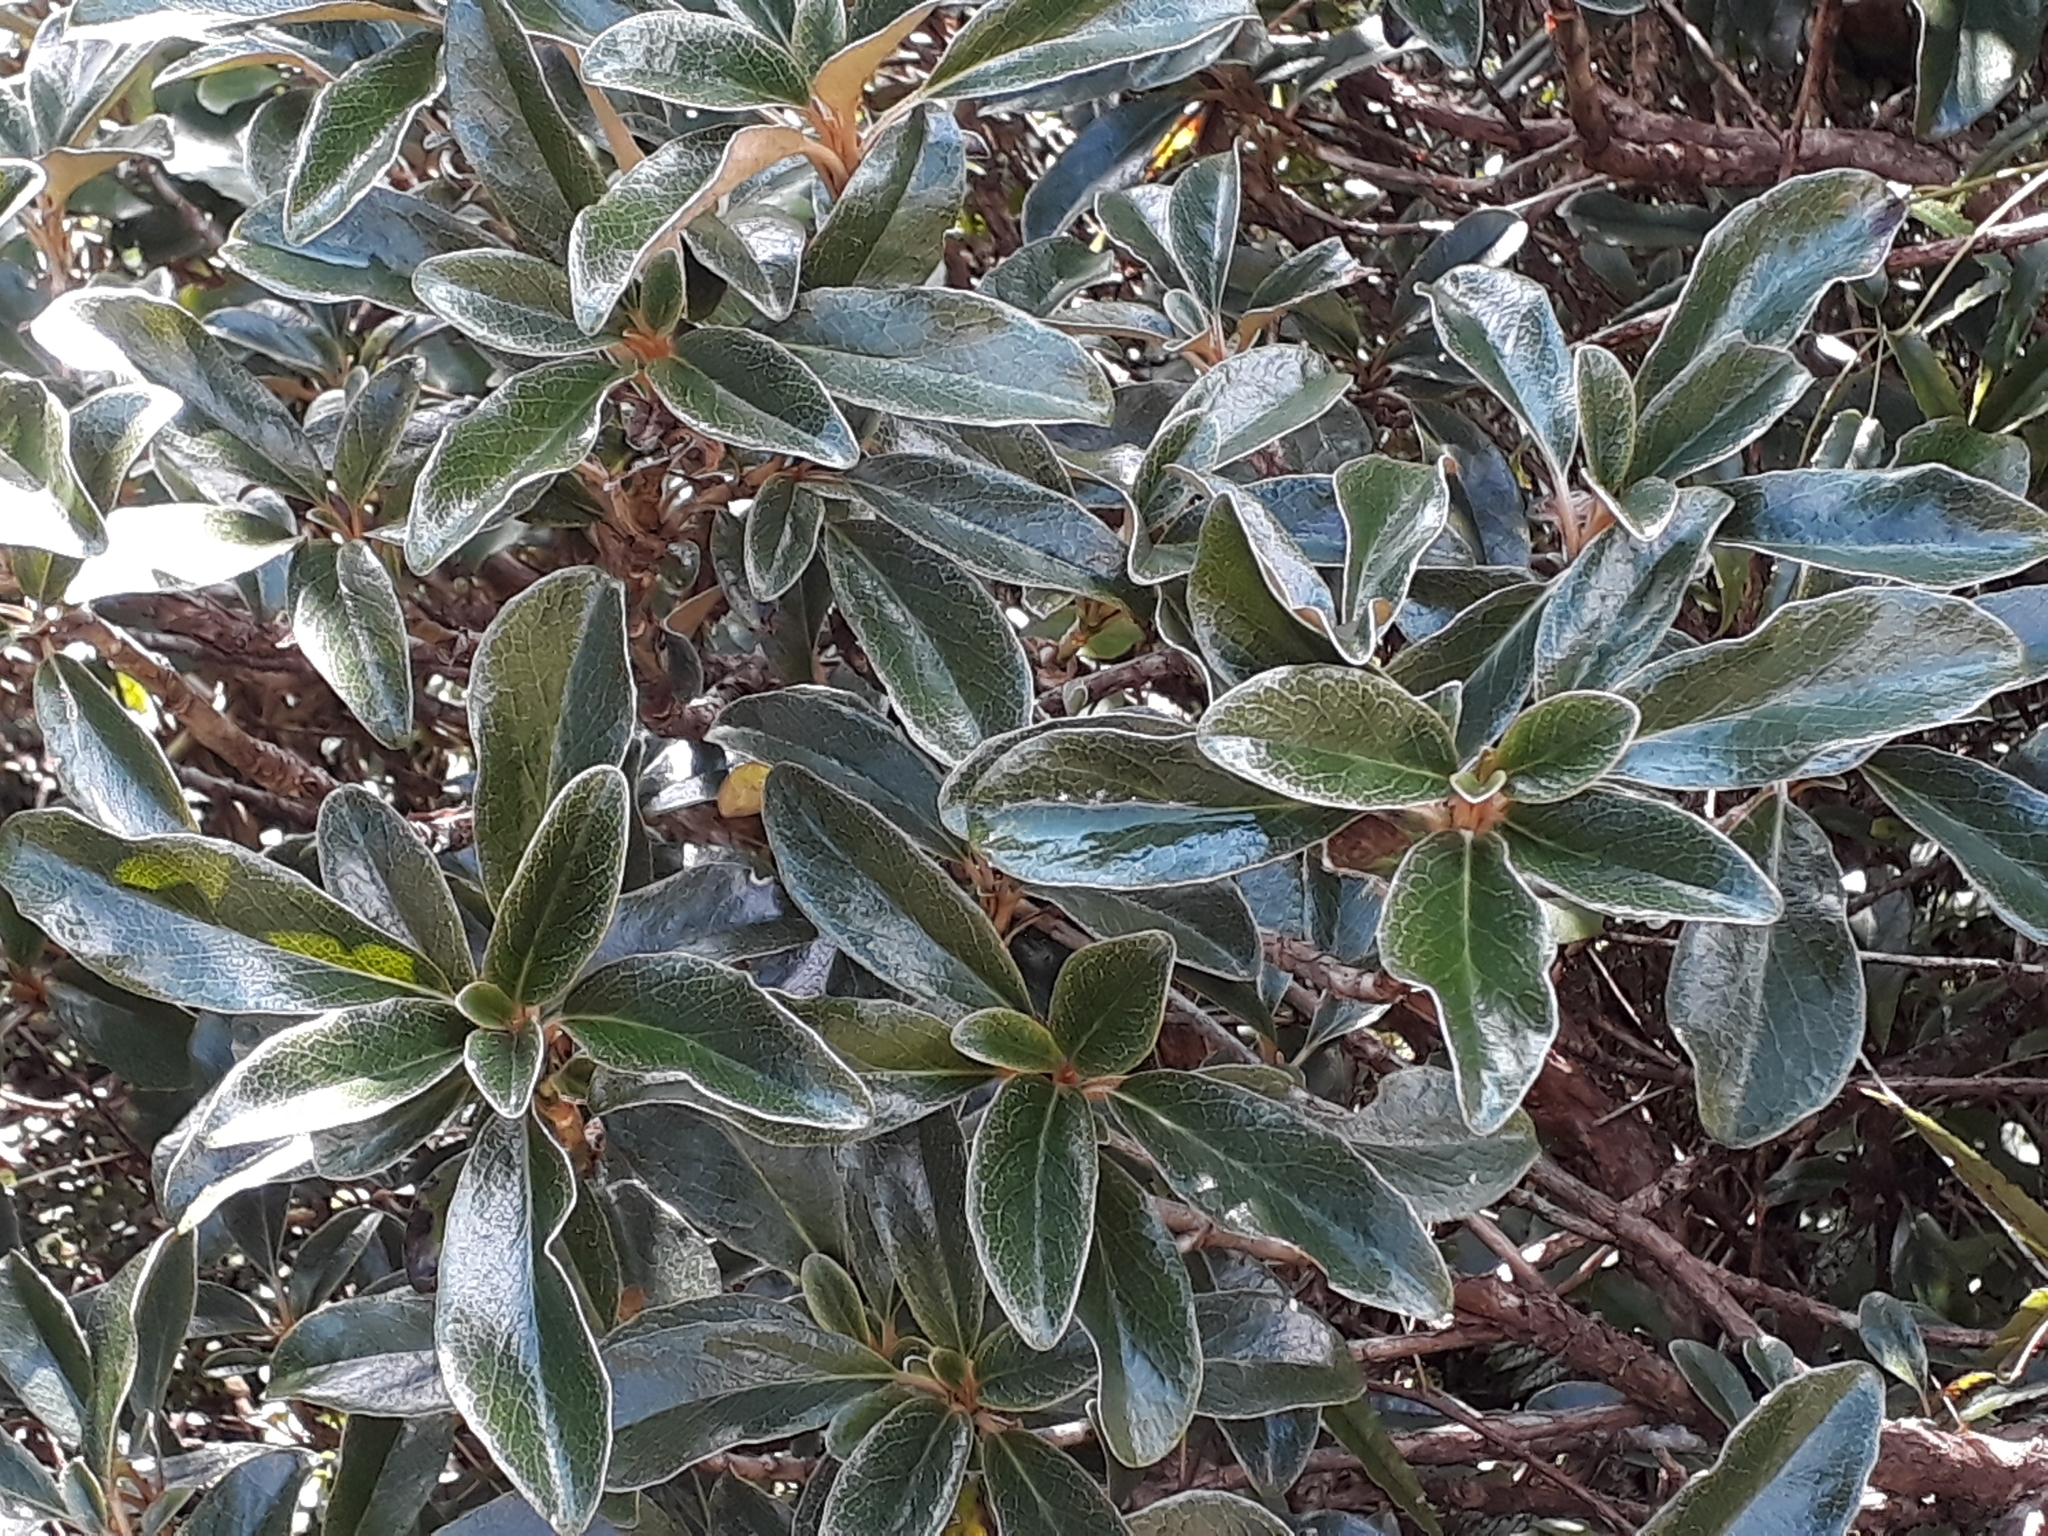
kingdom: Plantae
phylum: Tracheophyta
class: Magnoliopsida
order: Asterales
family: Asteraceae
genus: Brachyglottis
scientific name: Brachyglottis elaeagnifolia
